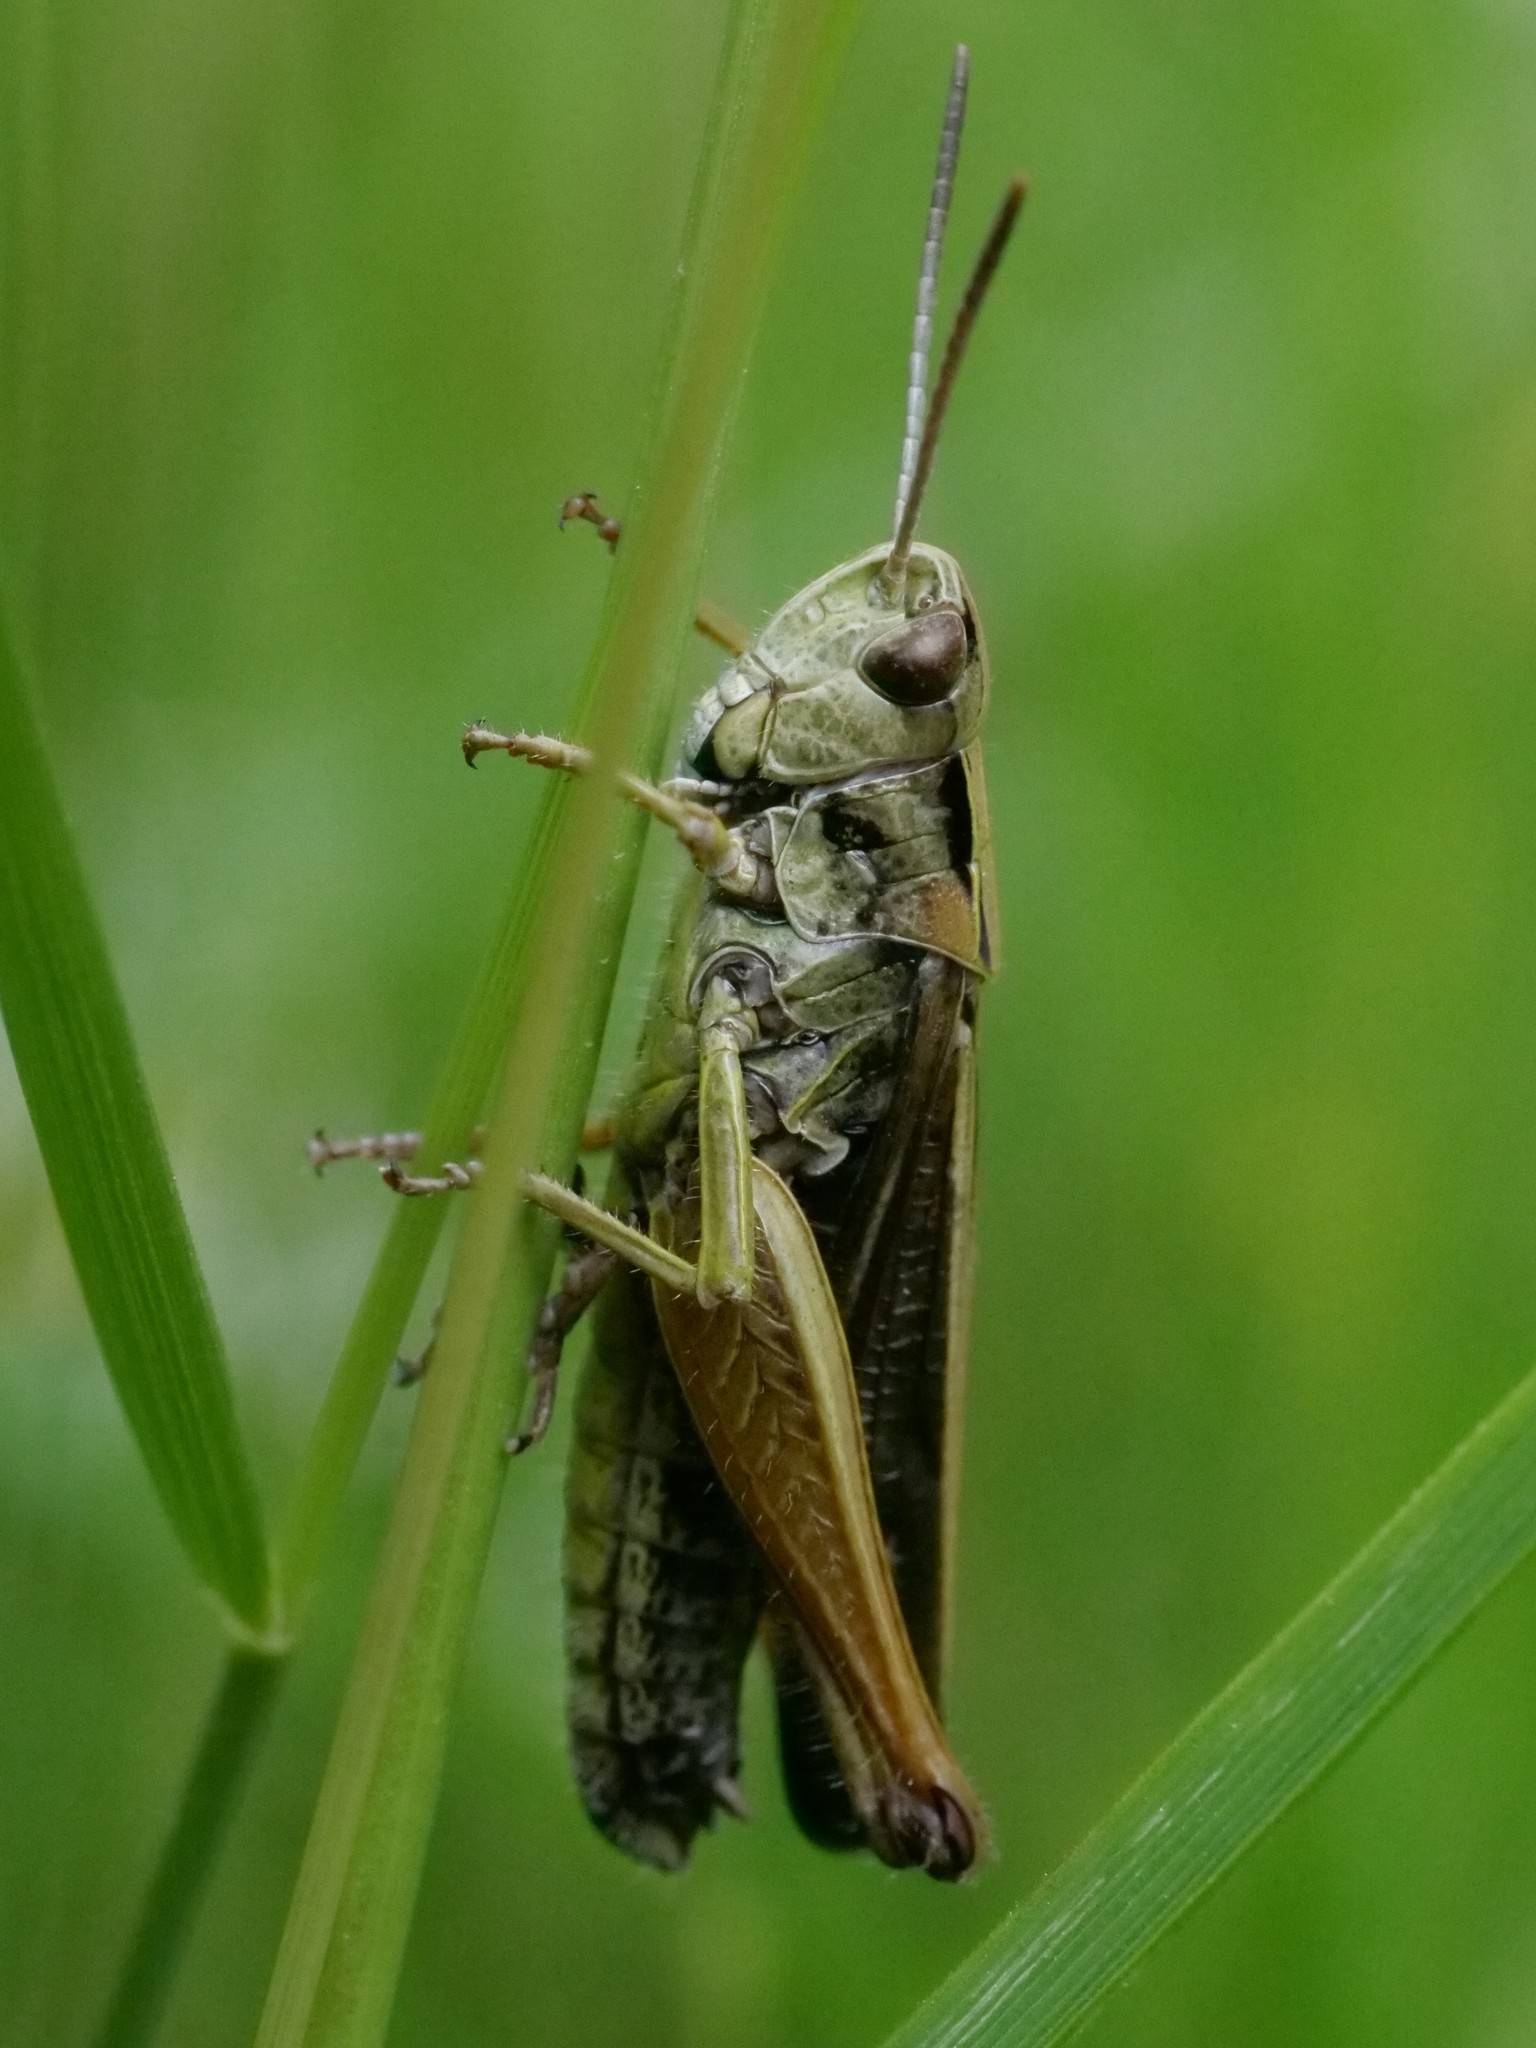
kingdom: Animalia
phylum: Arthropoda
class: Insecta
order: Orthoptera
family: Acrididae
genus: Omocestus
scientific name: Omocestus viridulus
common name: Common green grasshopper
